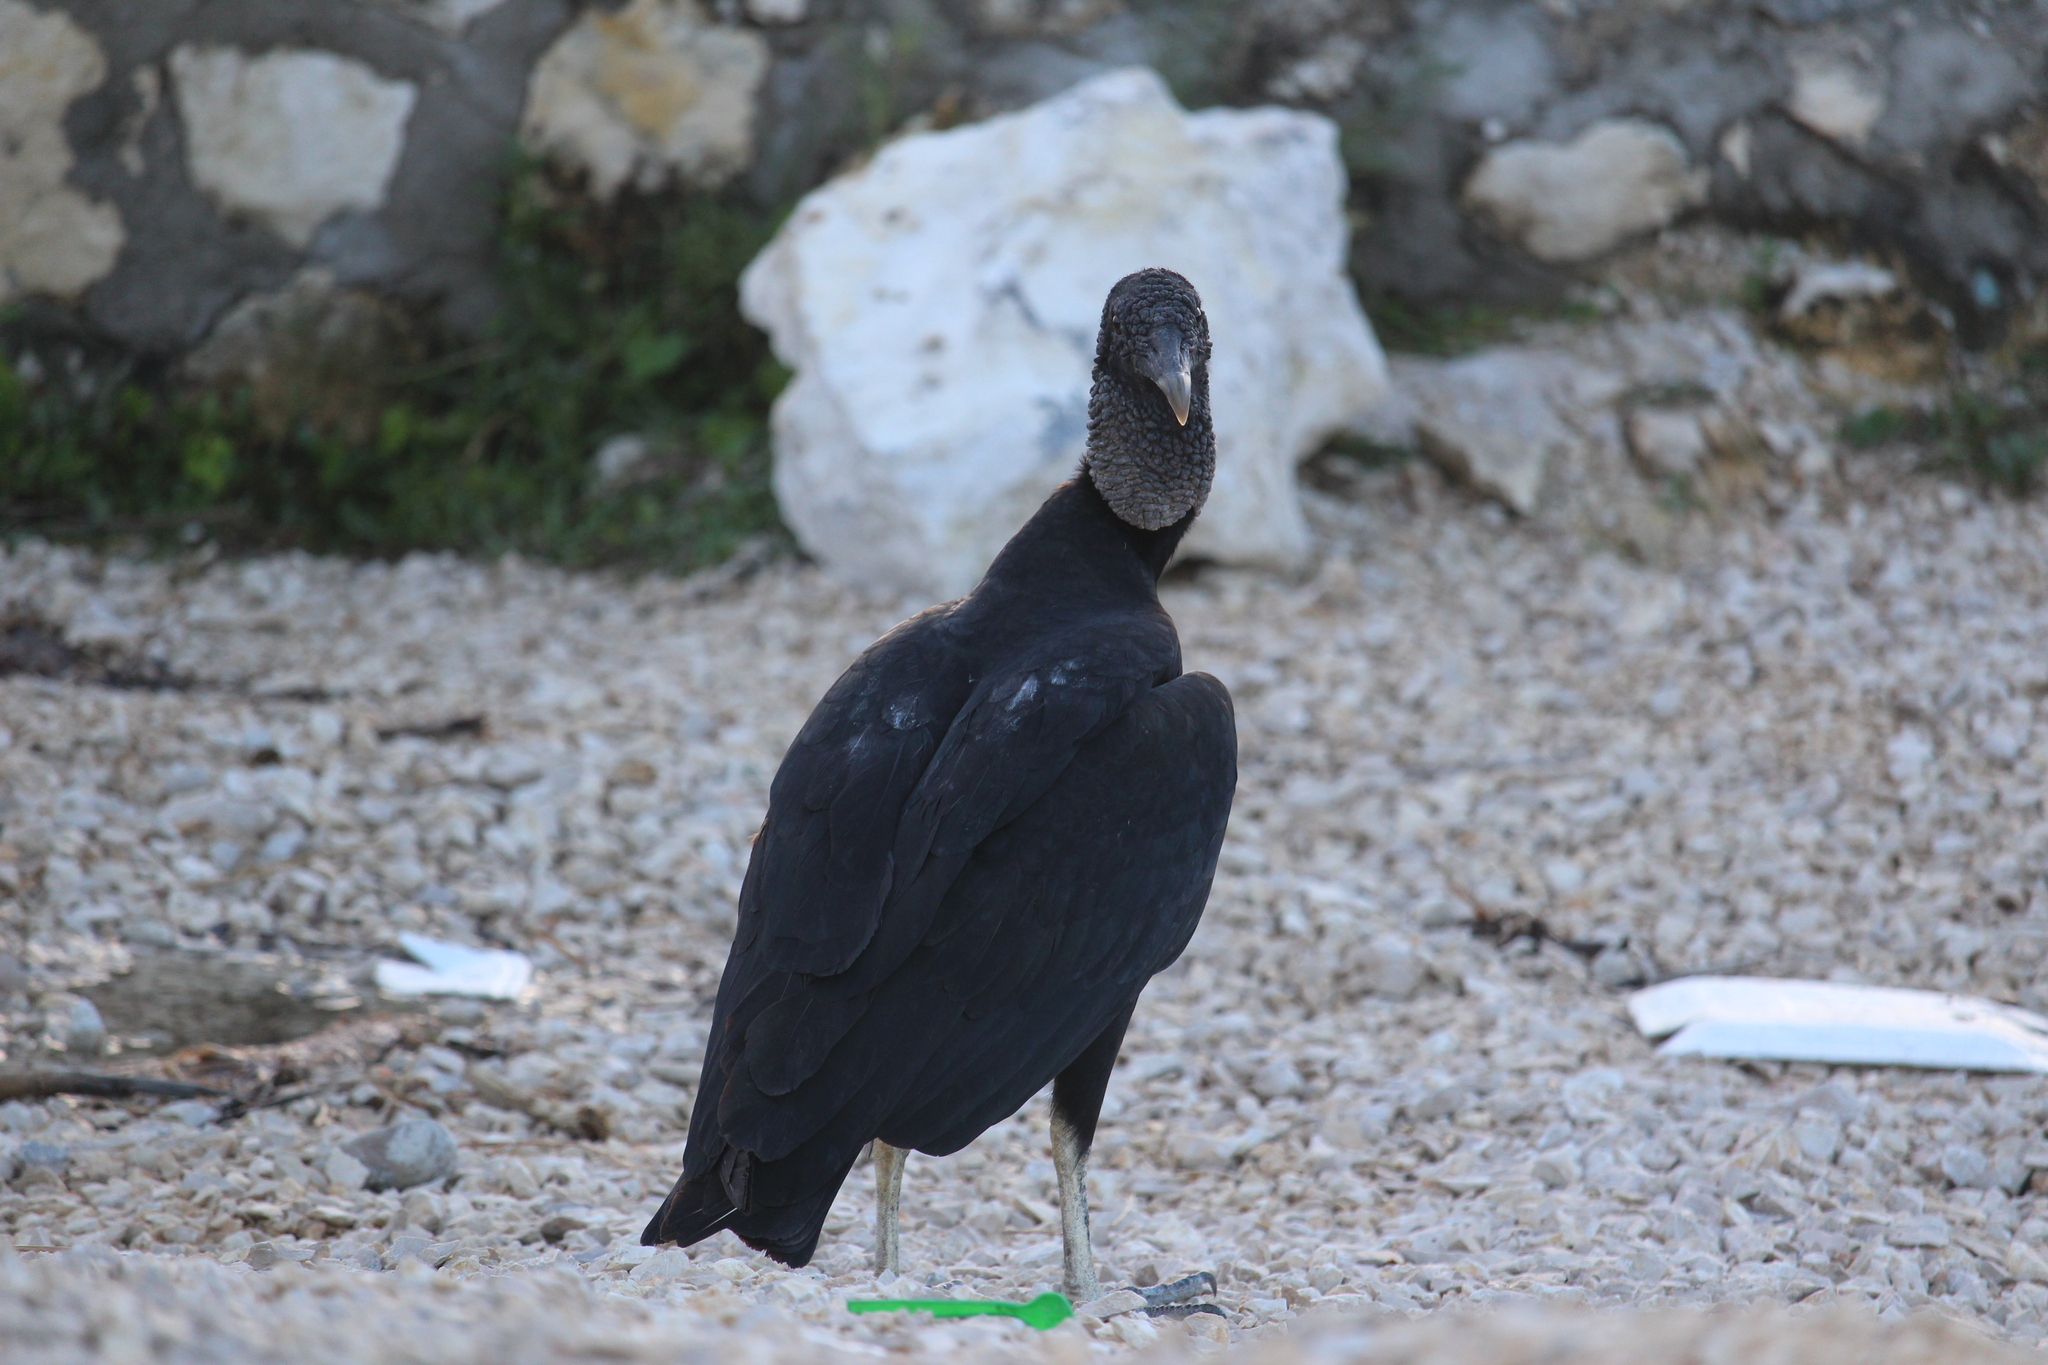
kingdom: Animalia
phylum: Chordata
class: Aves
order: Accipitriformes
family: Cathartidae
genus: Coragyps
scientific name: Coragyps atratus
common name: Black vulture
